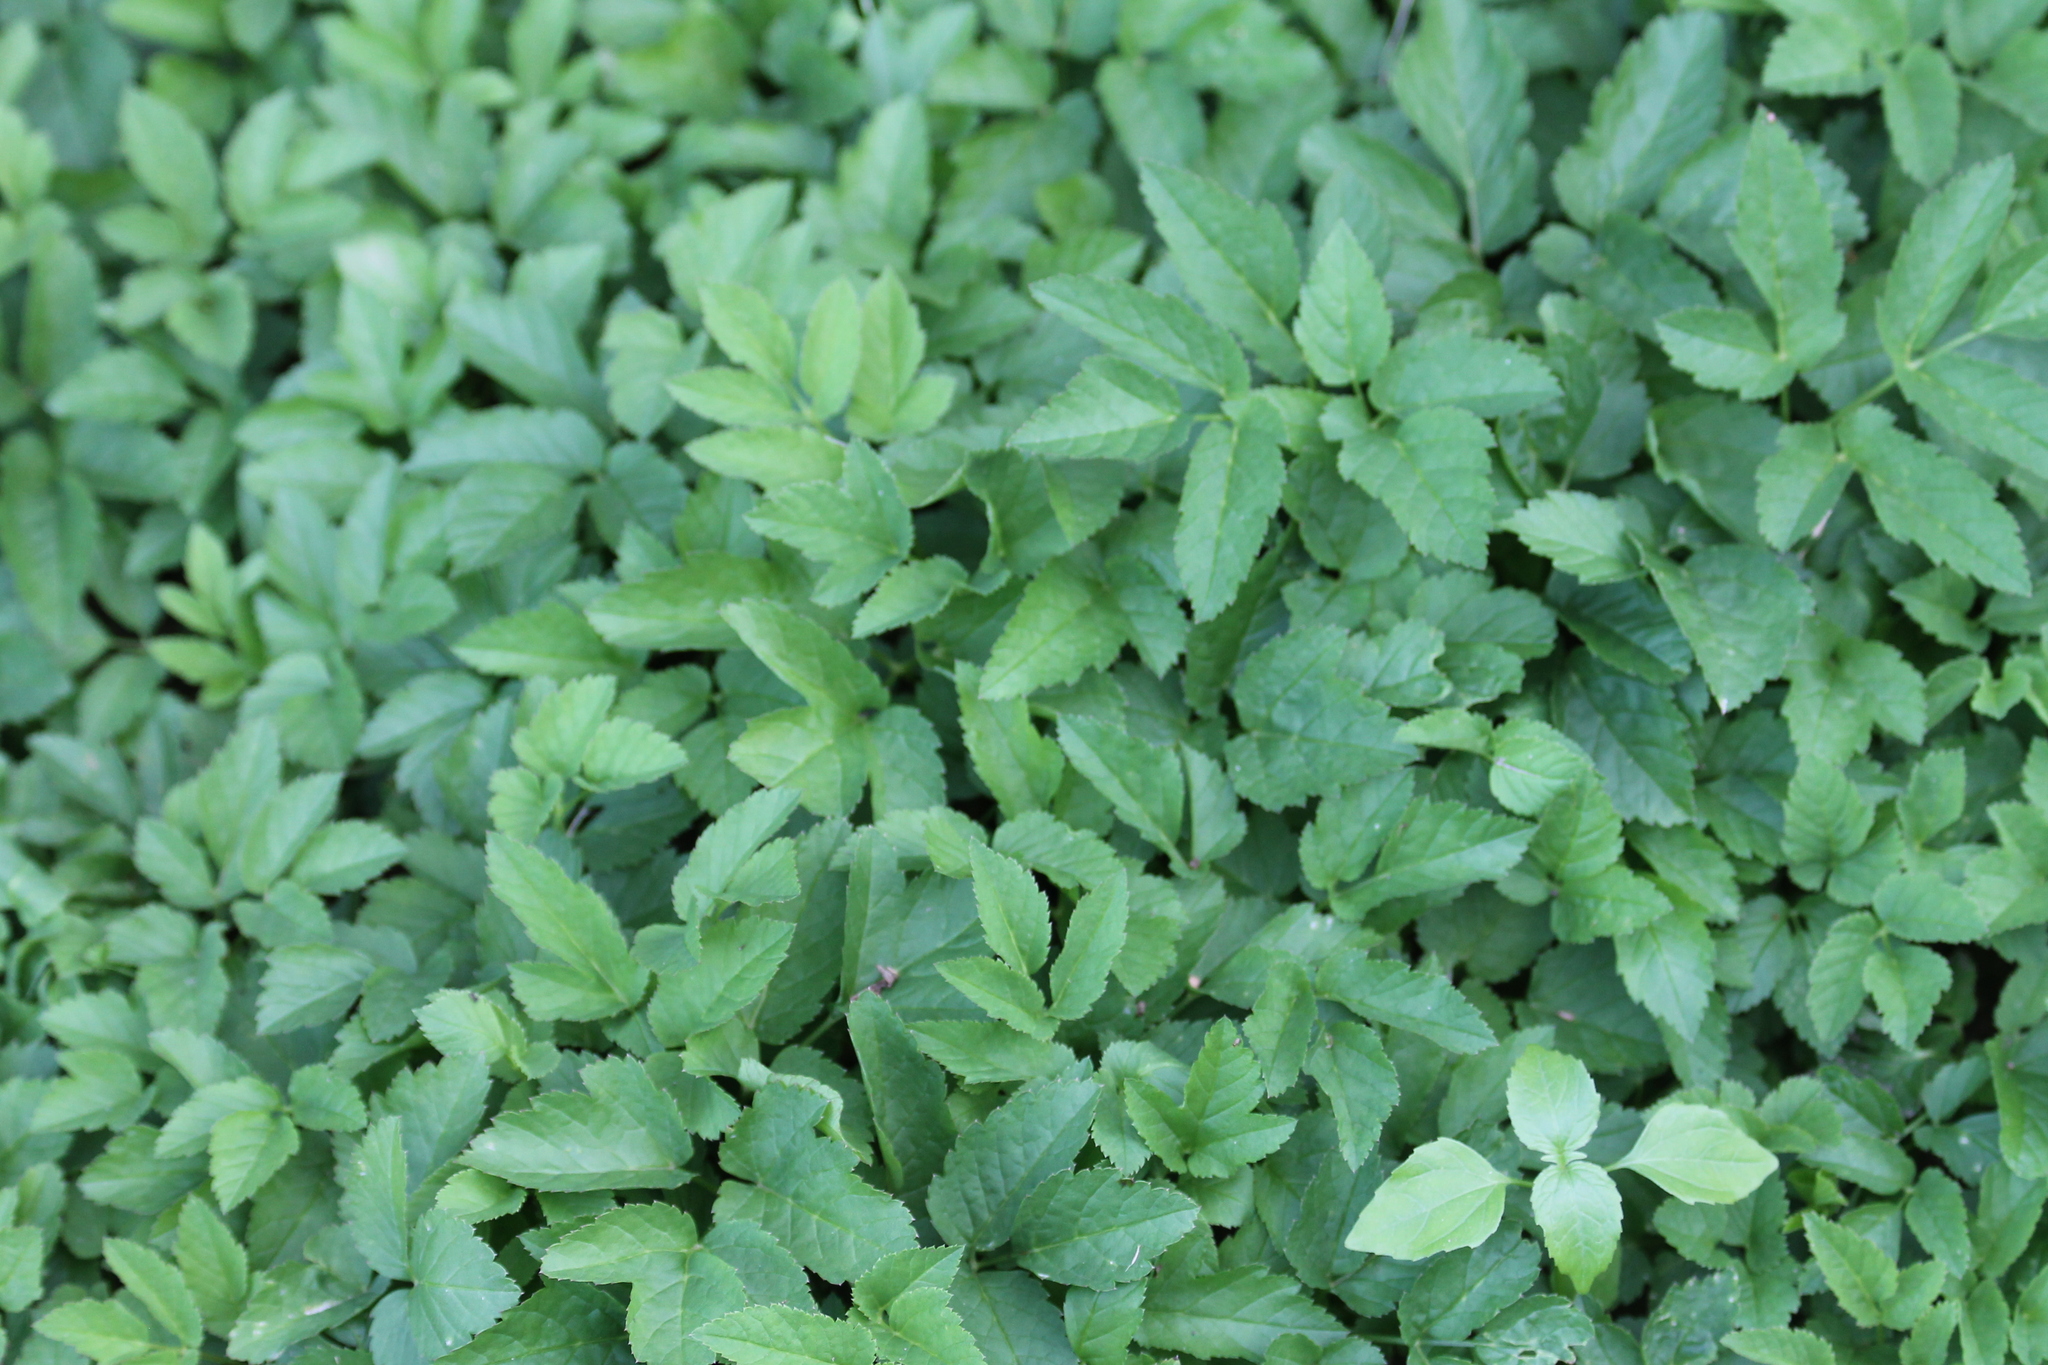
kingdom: Plantae
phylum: Tracheophyta
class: Magnoliopsida
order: Apiales
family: Apiaceae
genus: Aegopodium
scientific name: Aegopodium podagraria
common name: Ground-elder
